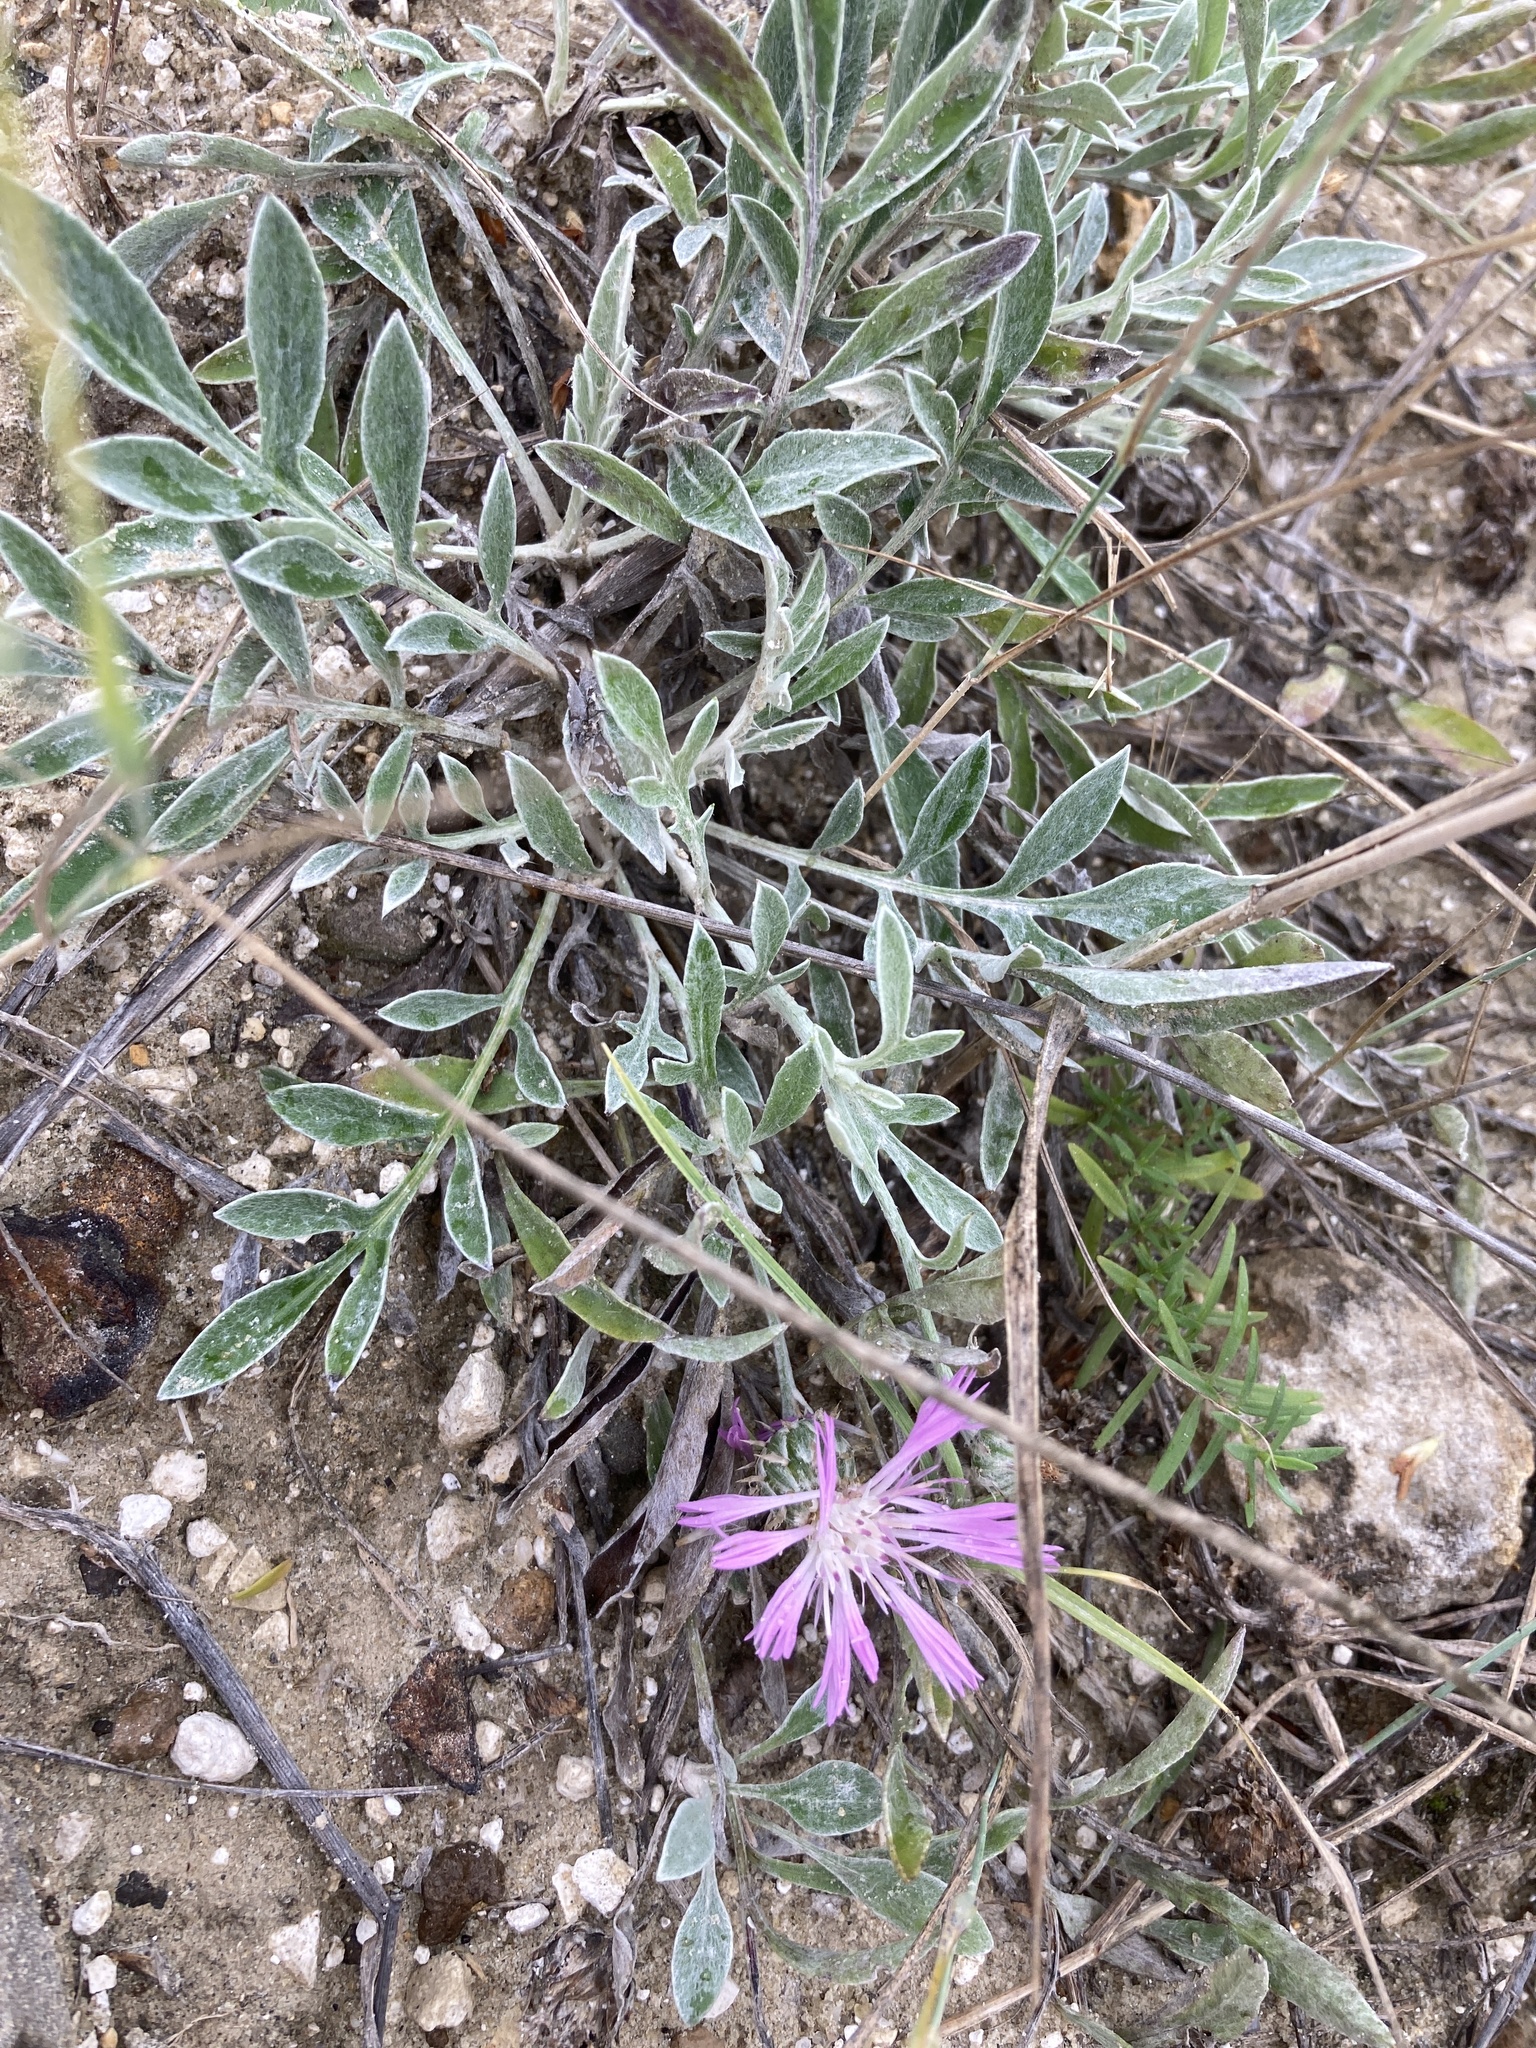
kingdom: Plantae
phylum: Tracheophyta
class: Magnoliopsida
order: Asterales
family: Asteraceae
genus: Psephellus
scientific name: Psephellus marschallianus
